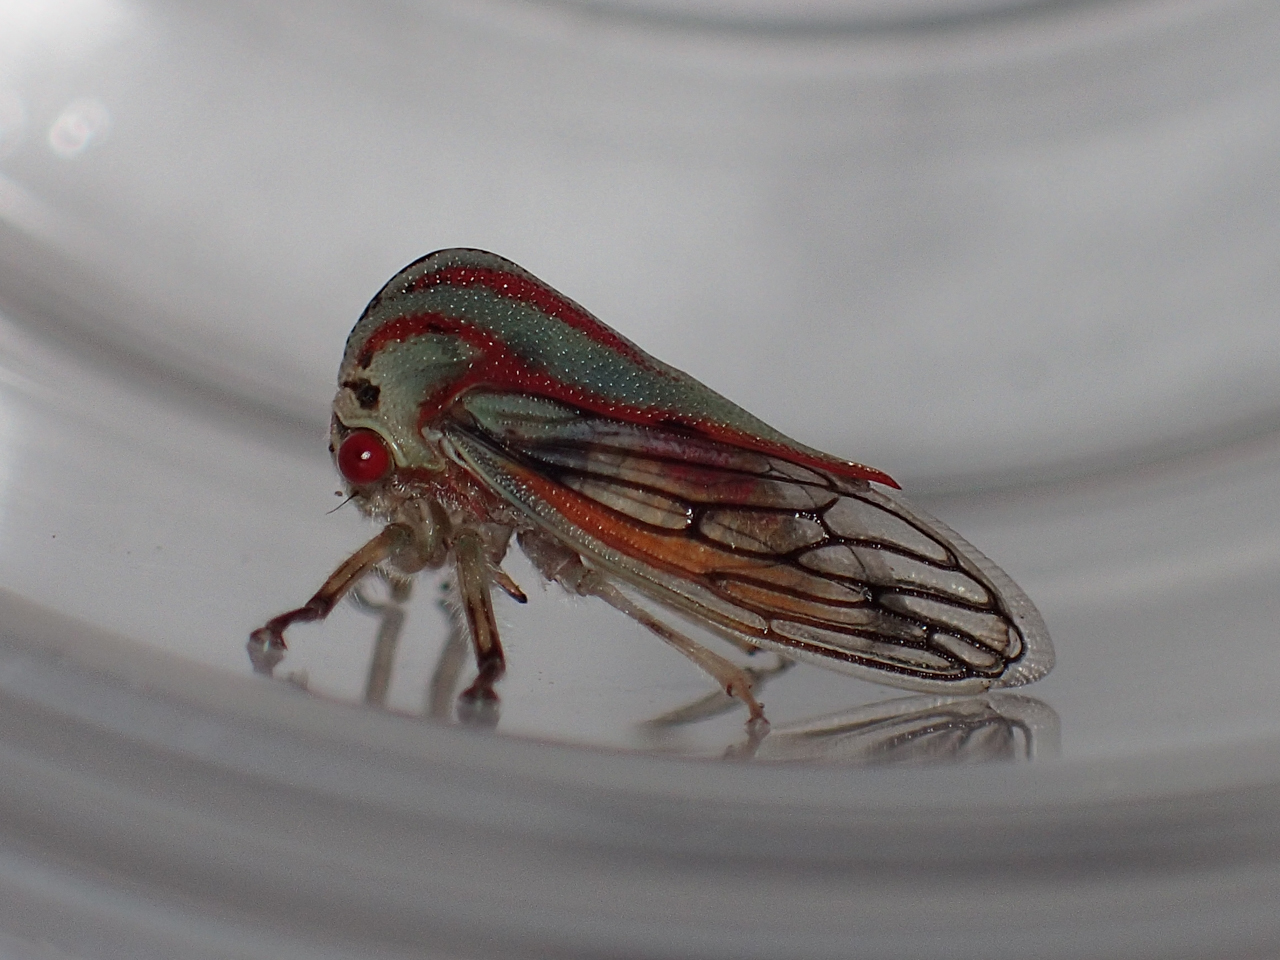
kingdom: Animalia
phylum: Arthropoda
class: Insecta
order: Hemiptera
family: Membracidae
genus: Platycotis
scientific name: Platycotis vittatus
